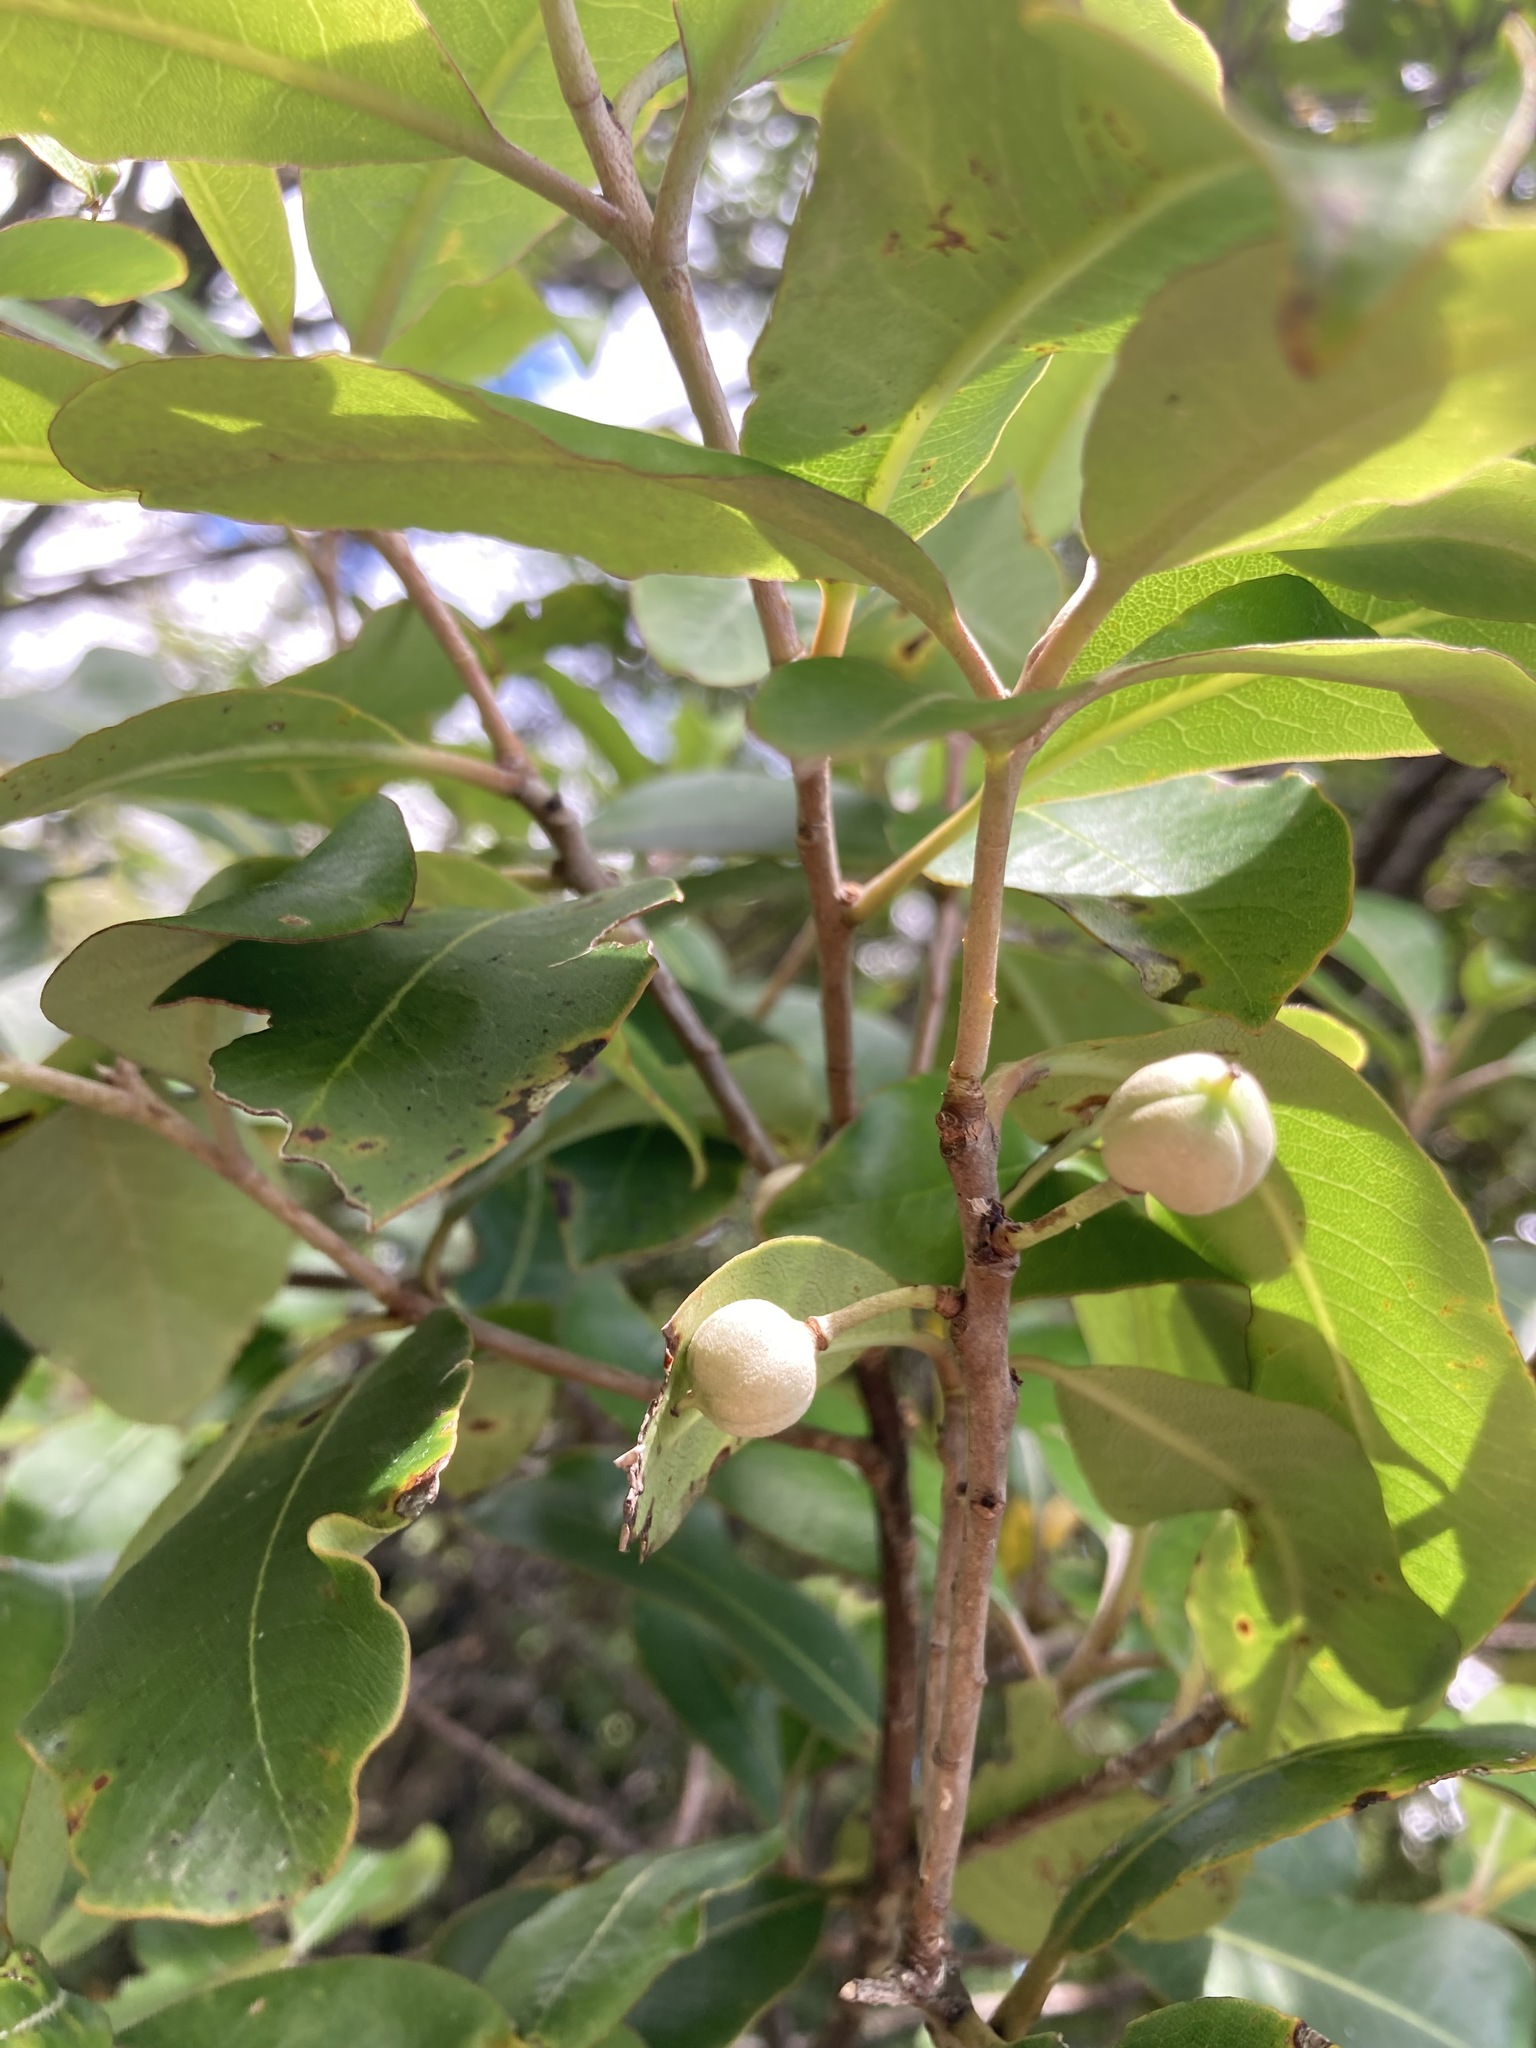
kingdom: Plantae
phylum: Tracheophyta
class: Magnoliopsida
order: Apiales
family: Pittosporaceae
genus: Pittosporum
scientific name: Pittosporum huttonianum
